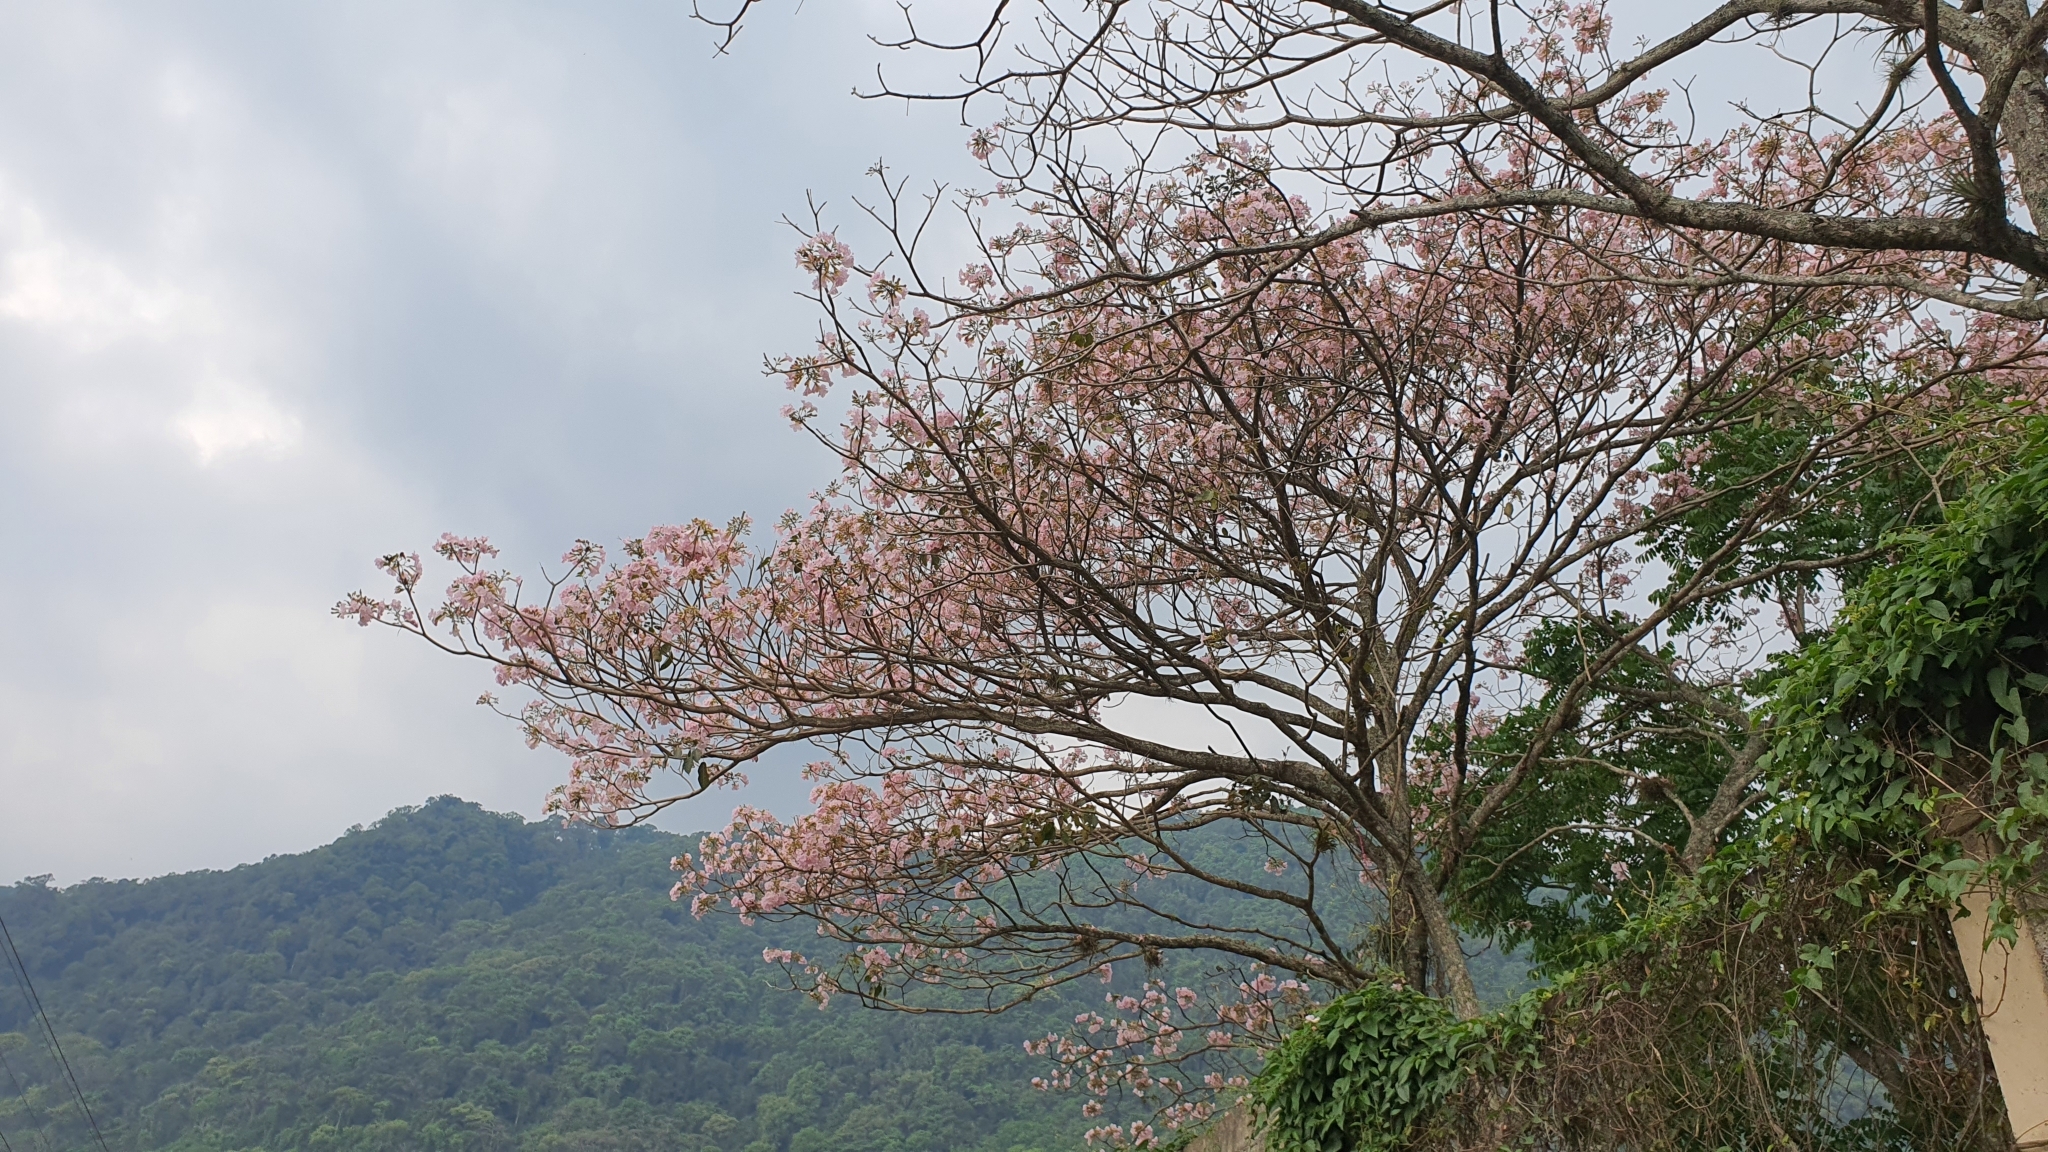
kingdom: Plantae
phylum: Tracheophyta
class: Magnoliopsida
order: Lamiales
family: Bignoniaceae
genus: Tabebuia
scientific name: Tabebuia rosea
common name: Pink poui
